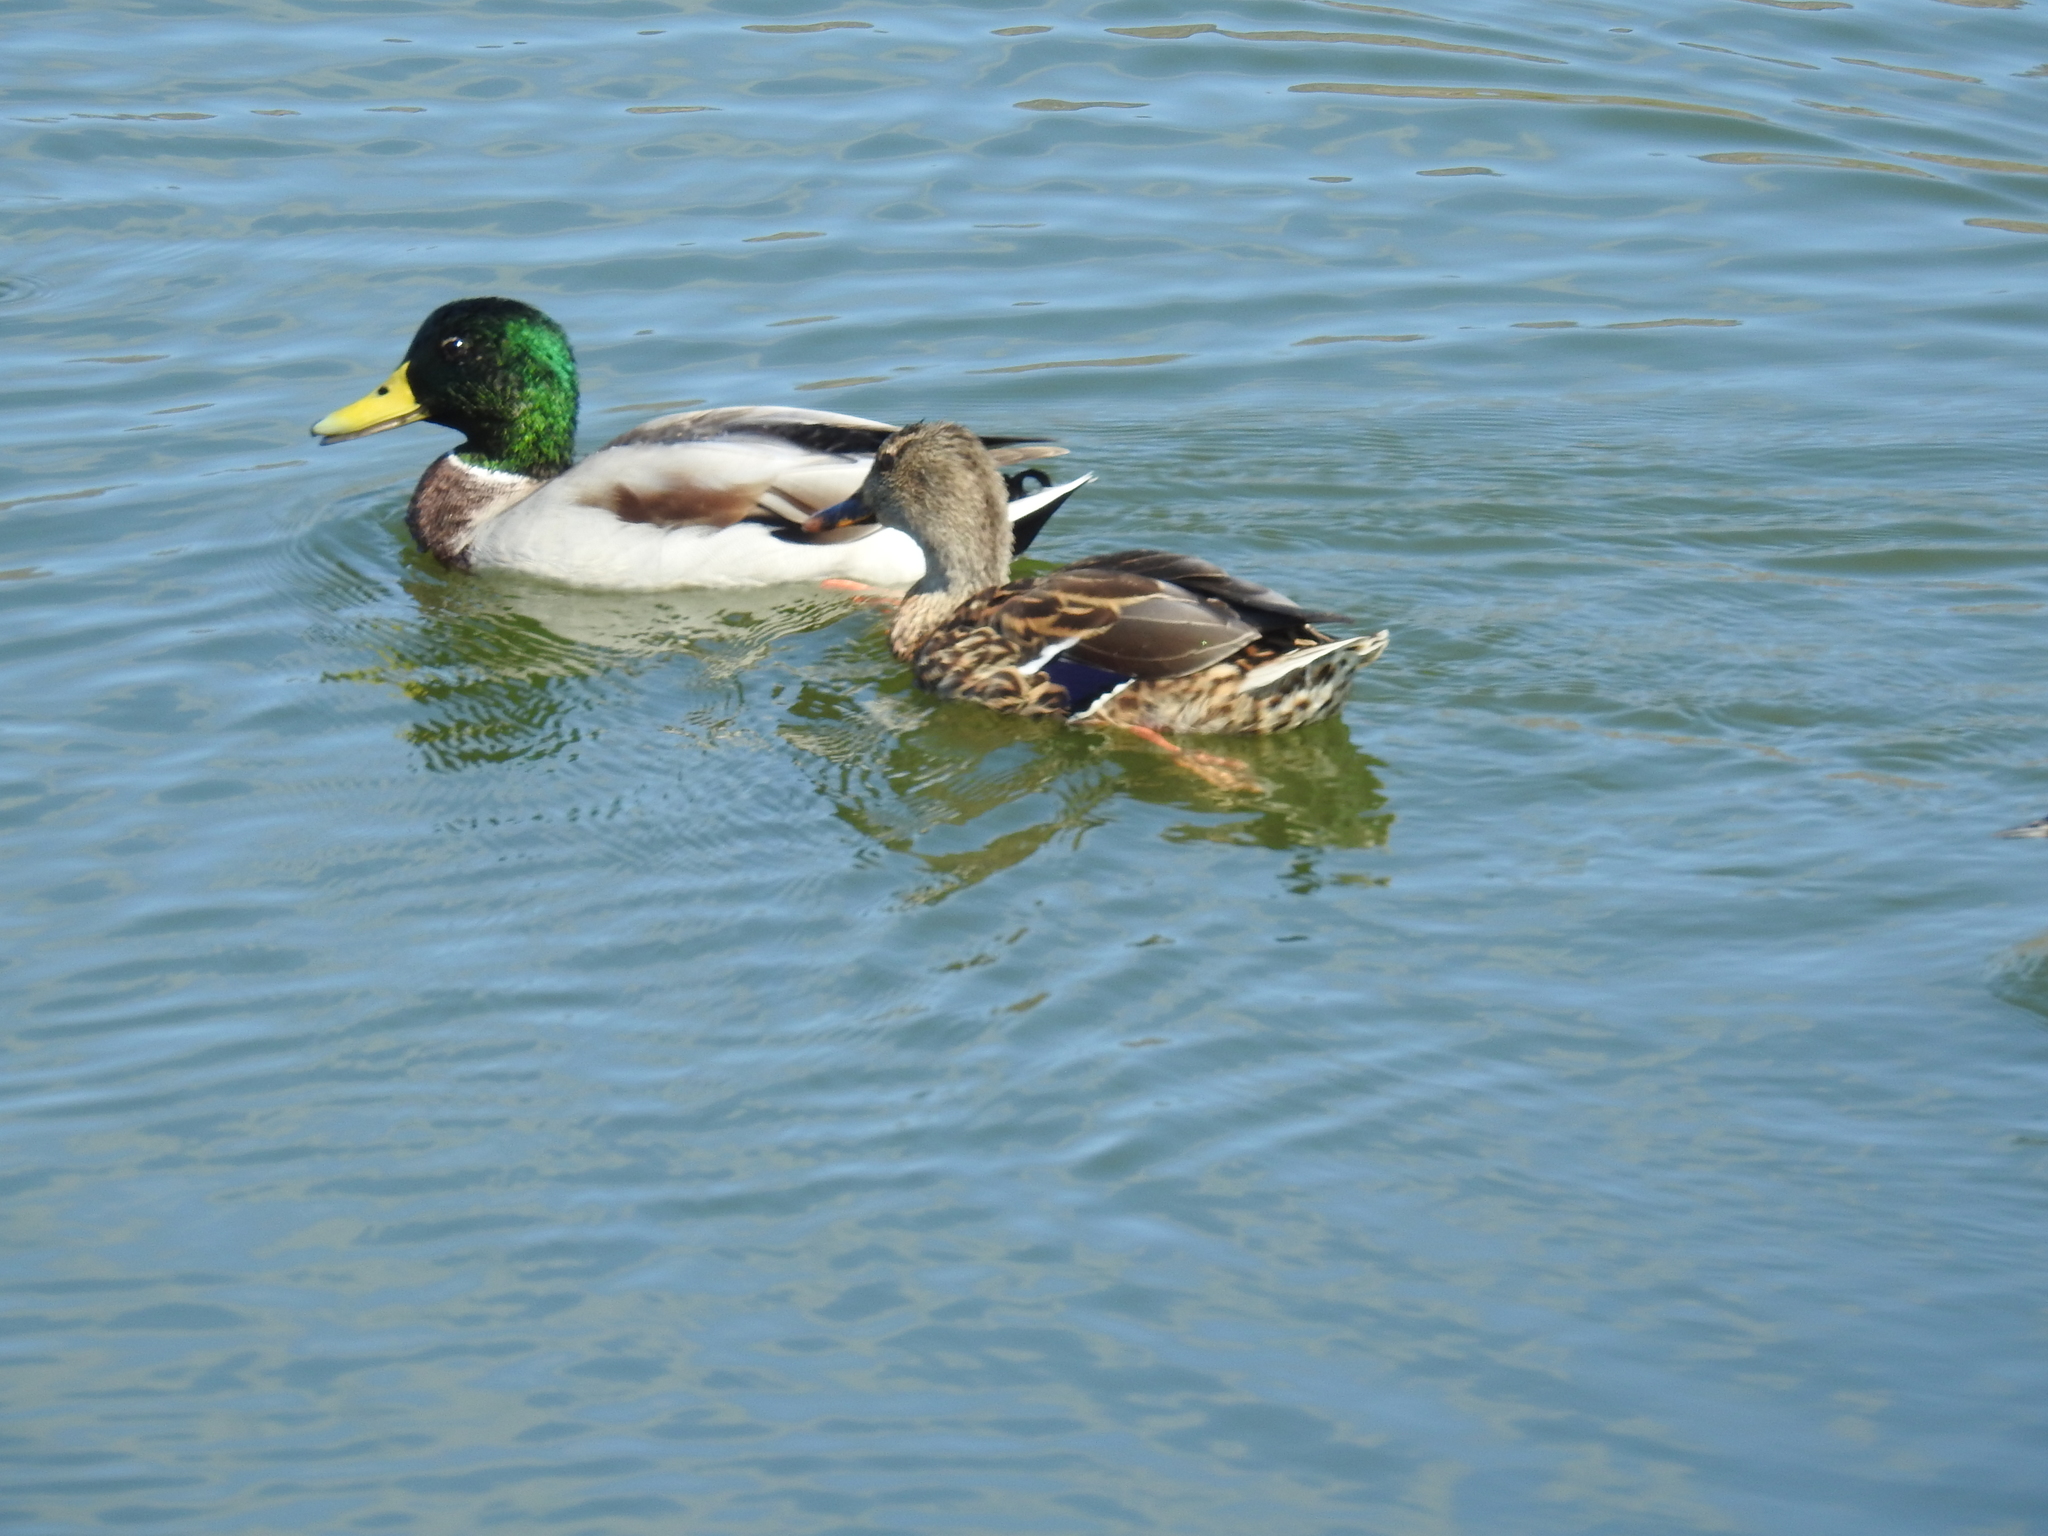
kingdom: Animalia
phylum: Chordata
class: Aves
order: Anseriformes
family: Anatidae
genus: Anas
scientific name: Anas platyrhynchos
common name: Mallard
